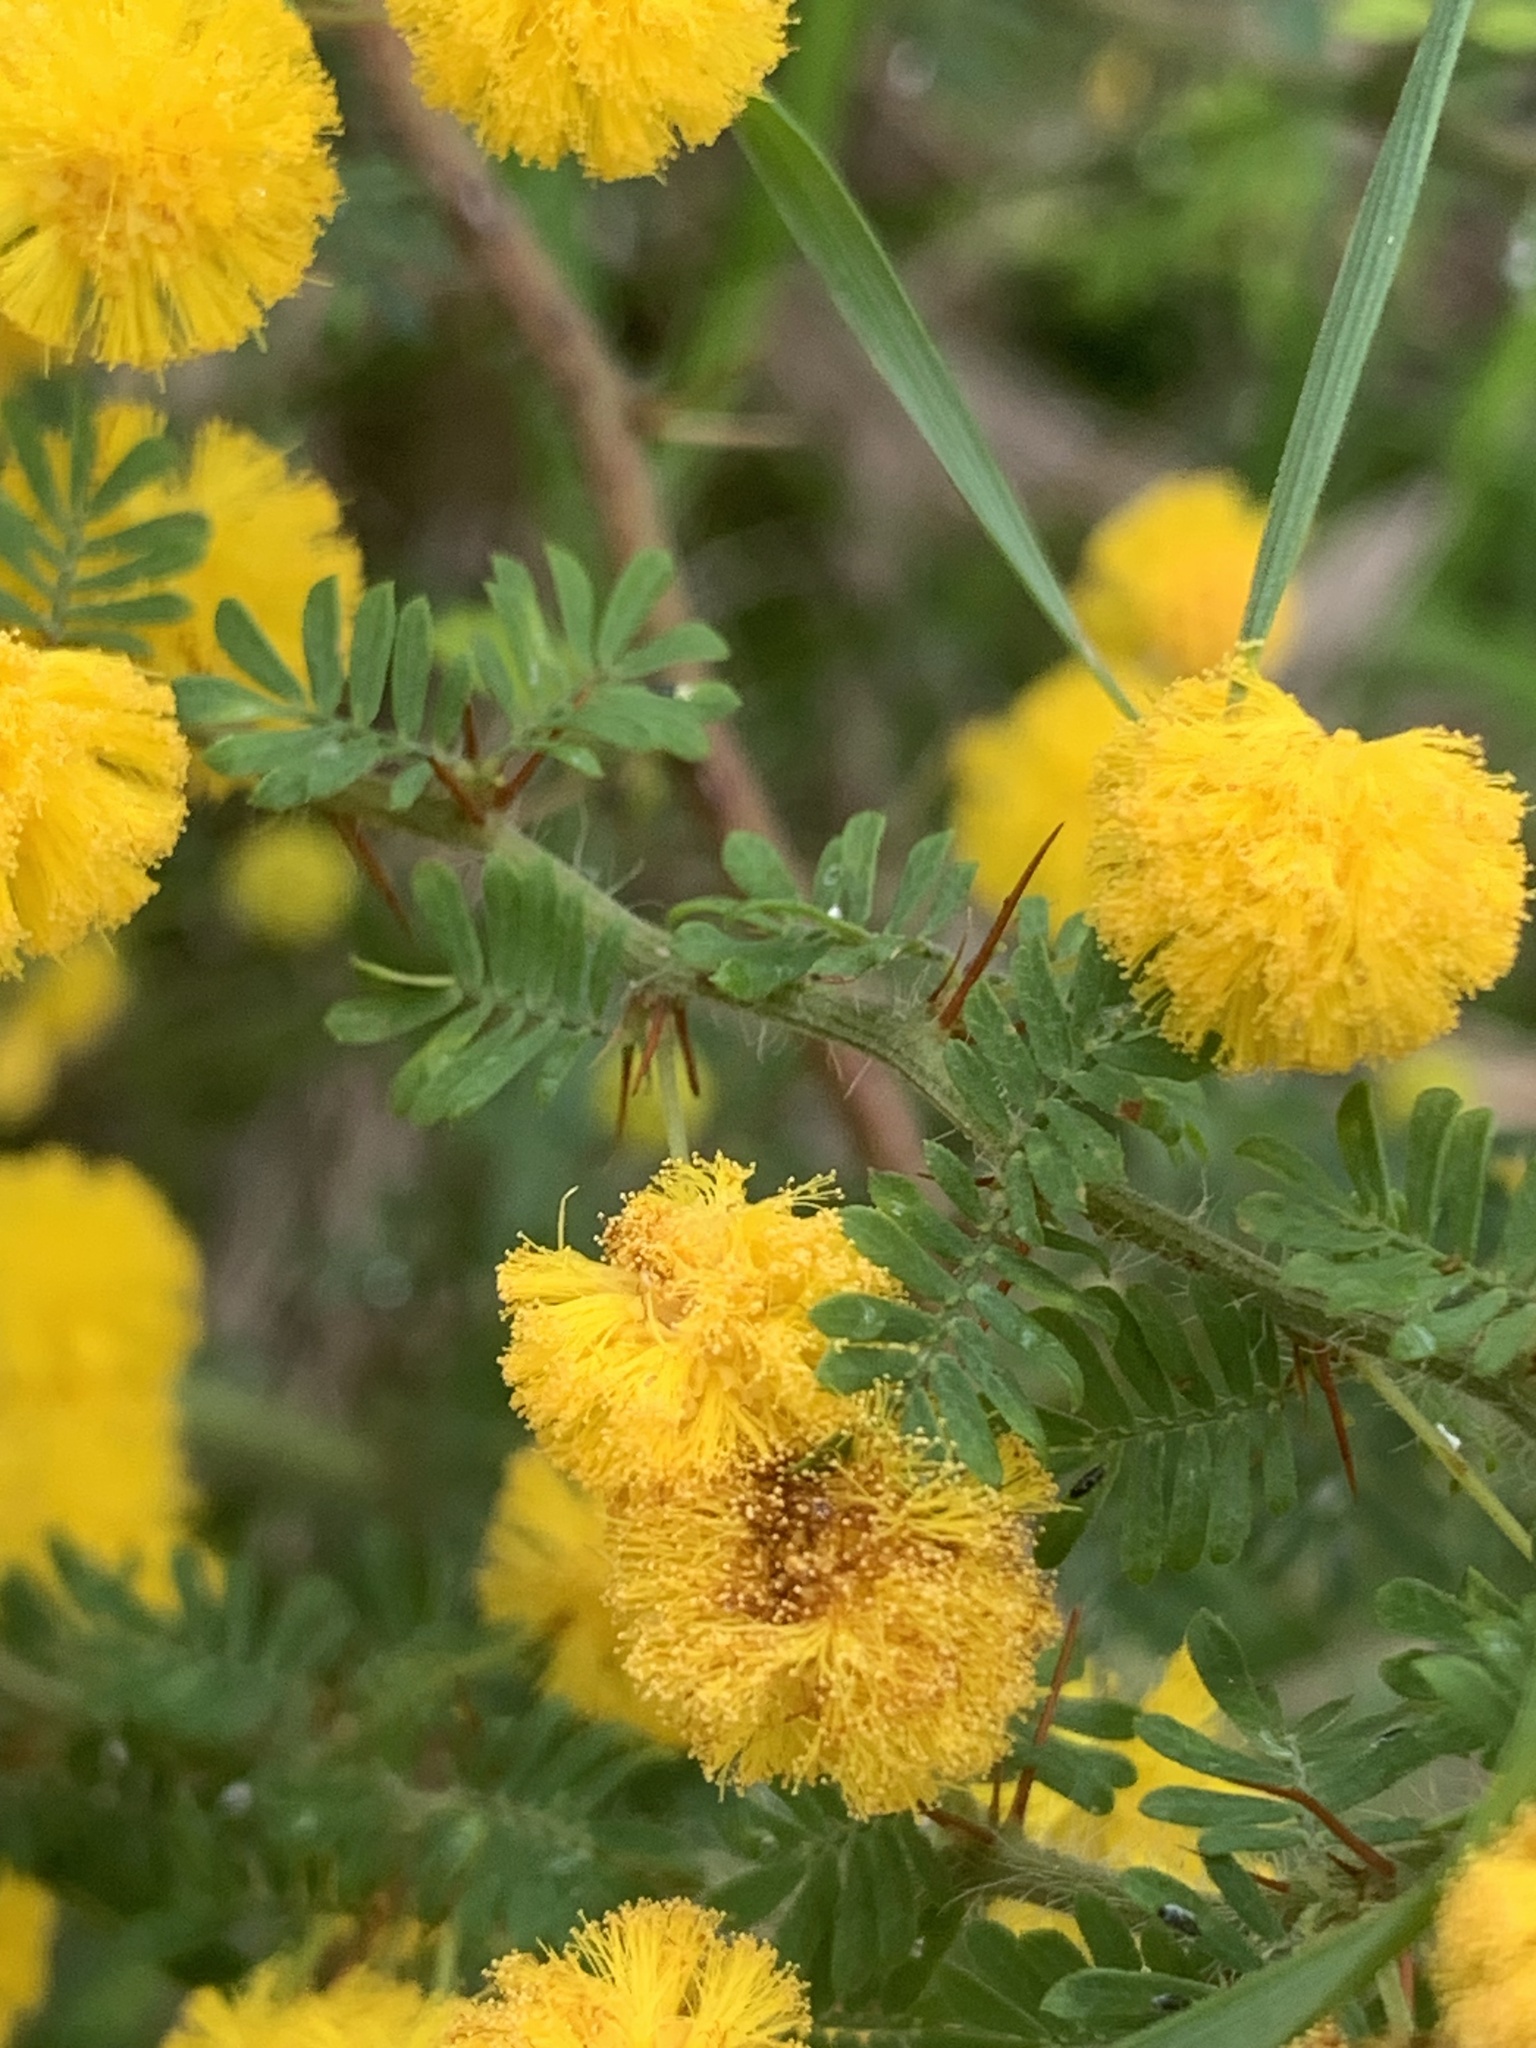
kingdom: Plantae
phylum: Tracheophyta
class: Magnoliopsida
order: Fabales
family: Fabaceae
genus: Acacia
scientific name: Acacia pulchella
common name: Prickly moses
